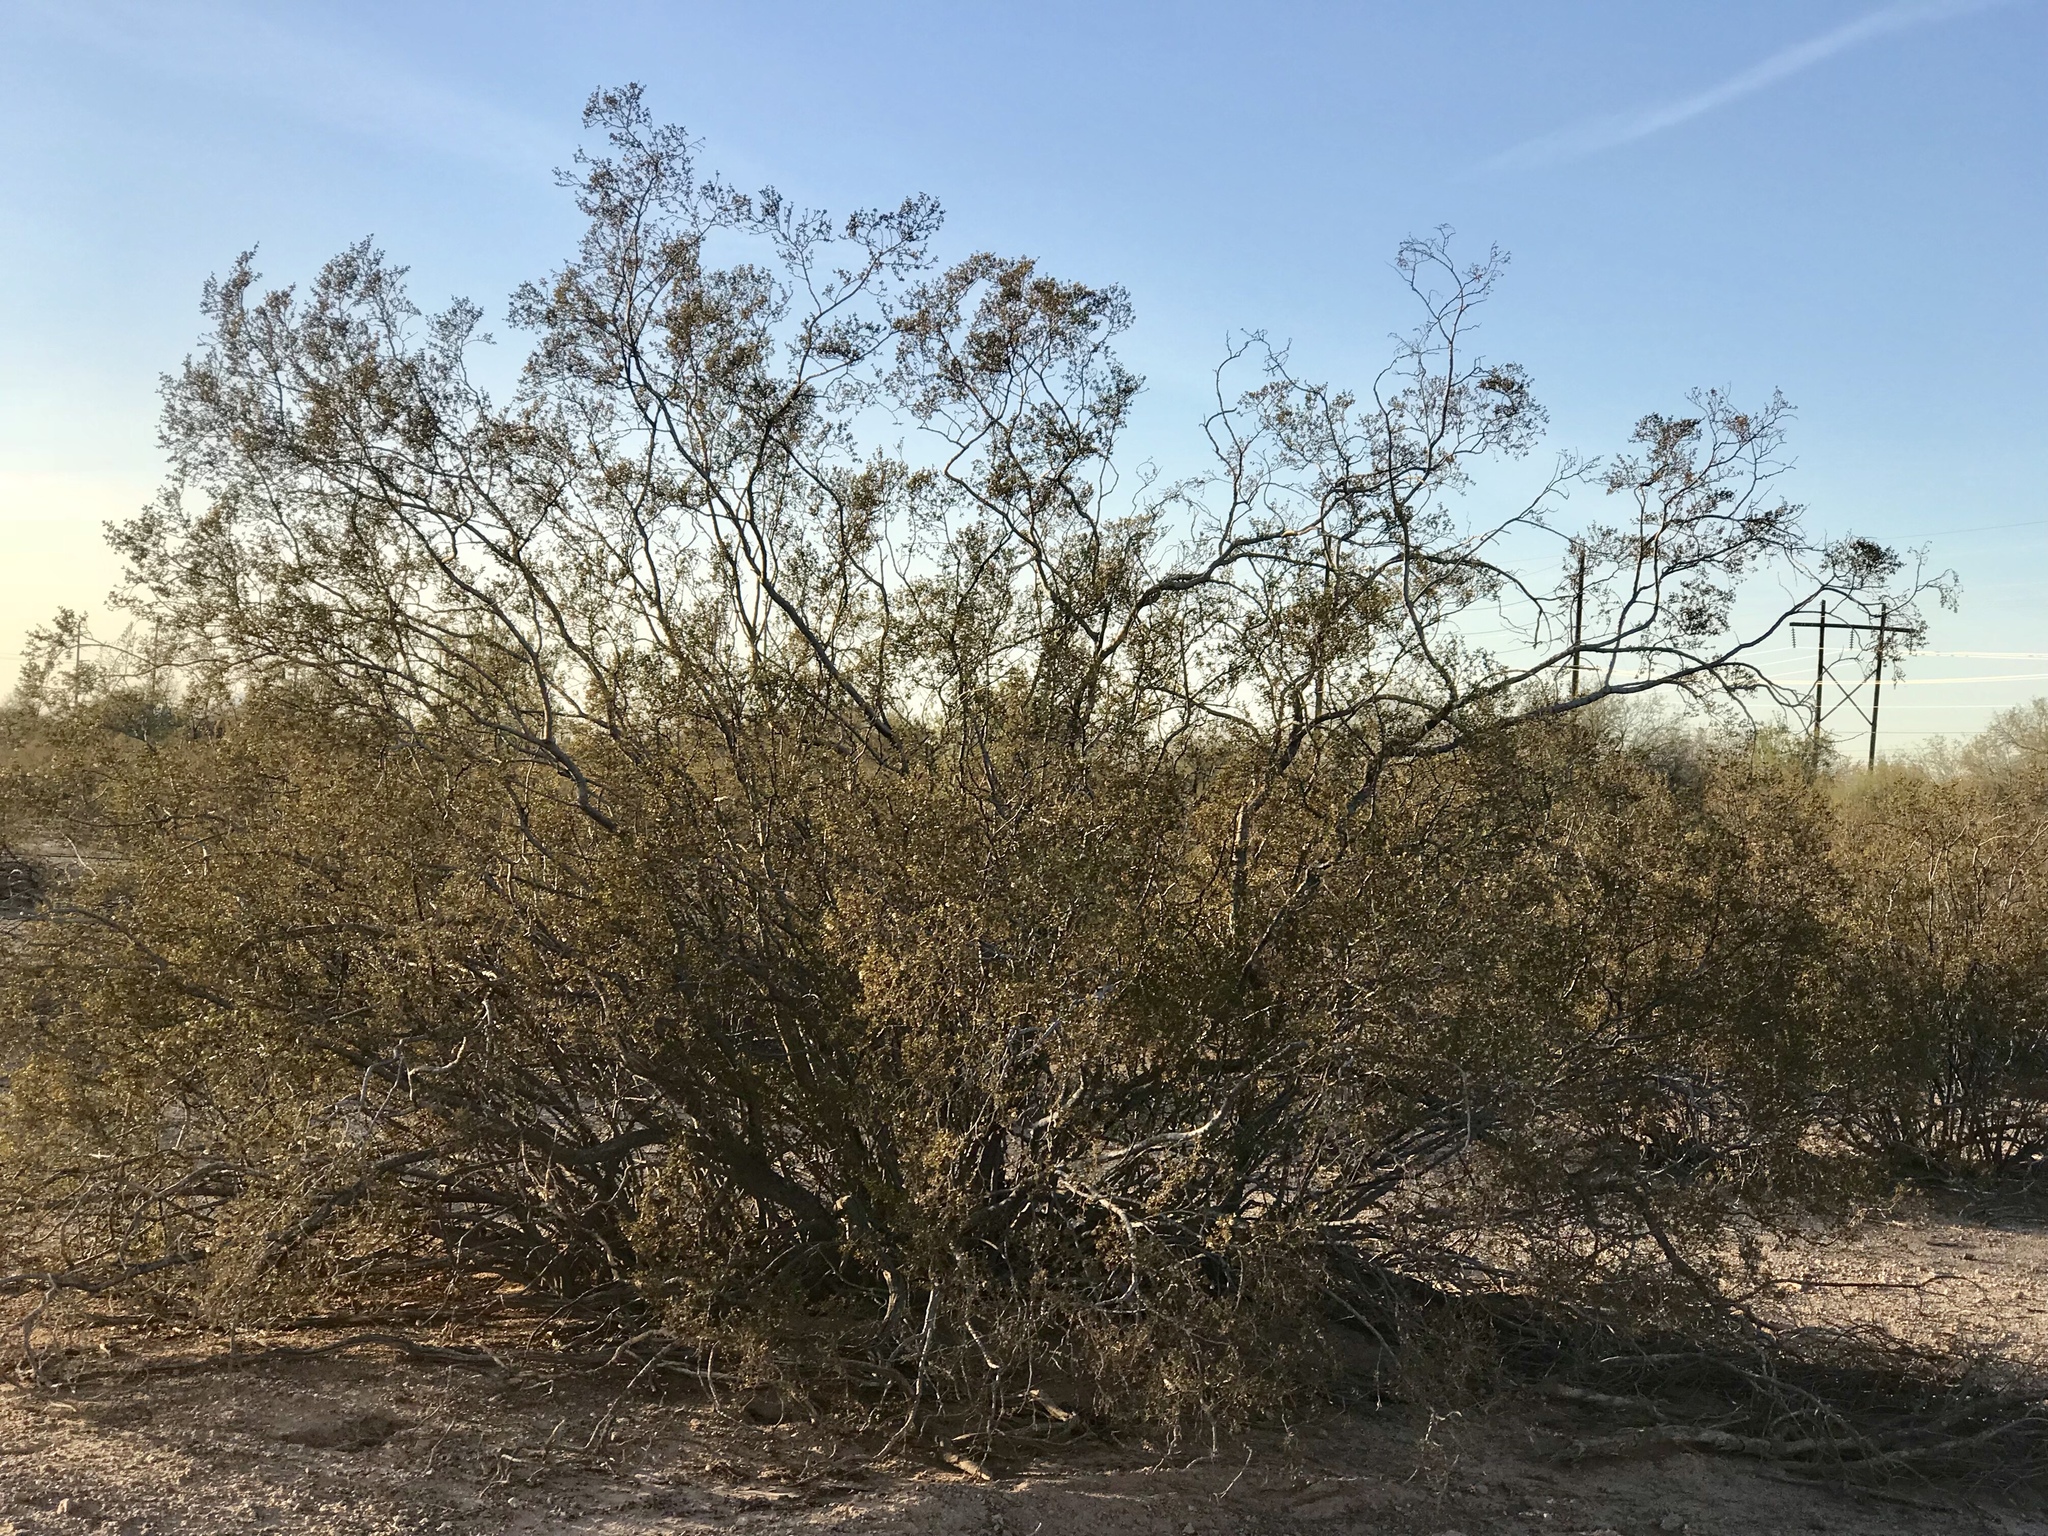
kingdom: Plantae
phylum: Tracheophyta
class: Magnoliopsida
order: Zygophyllales
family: Zygophyllaceae
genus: Larrea
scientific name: Larrea tridentata
